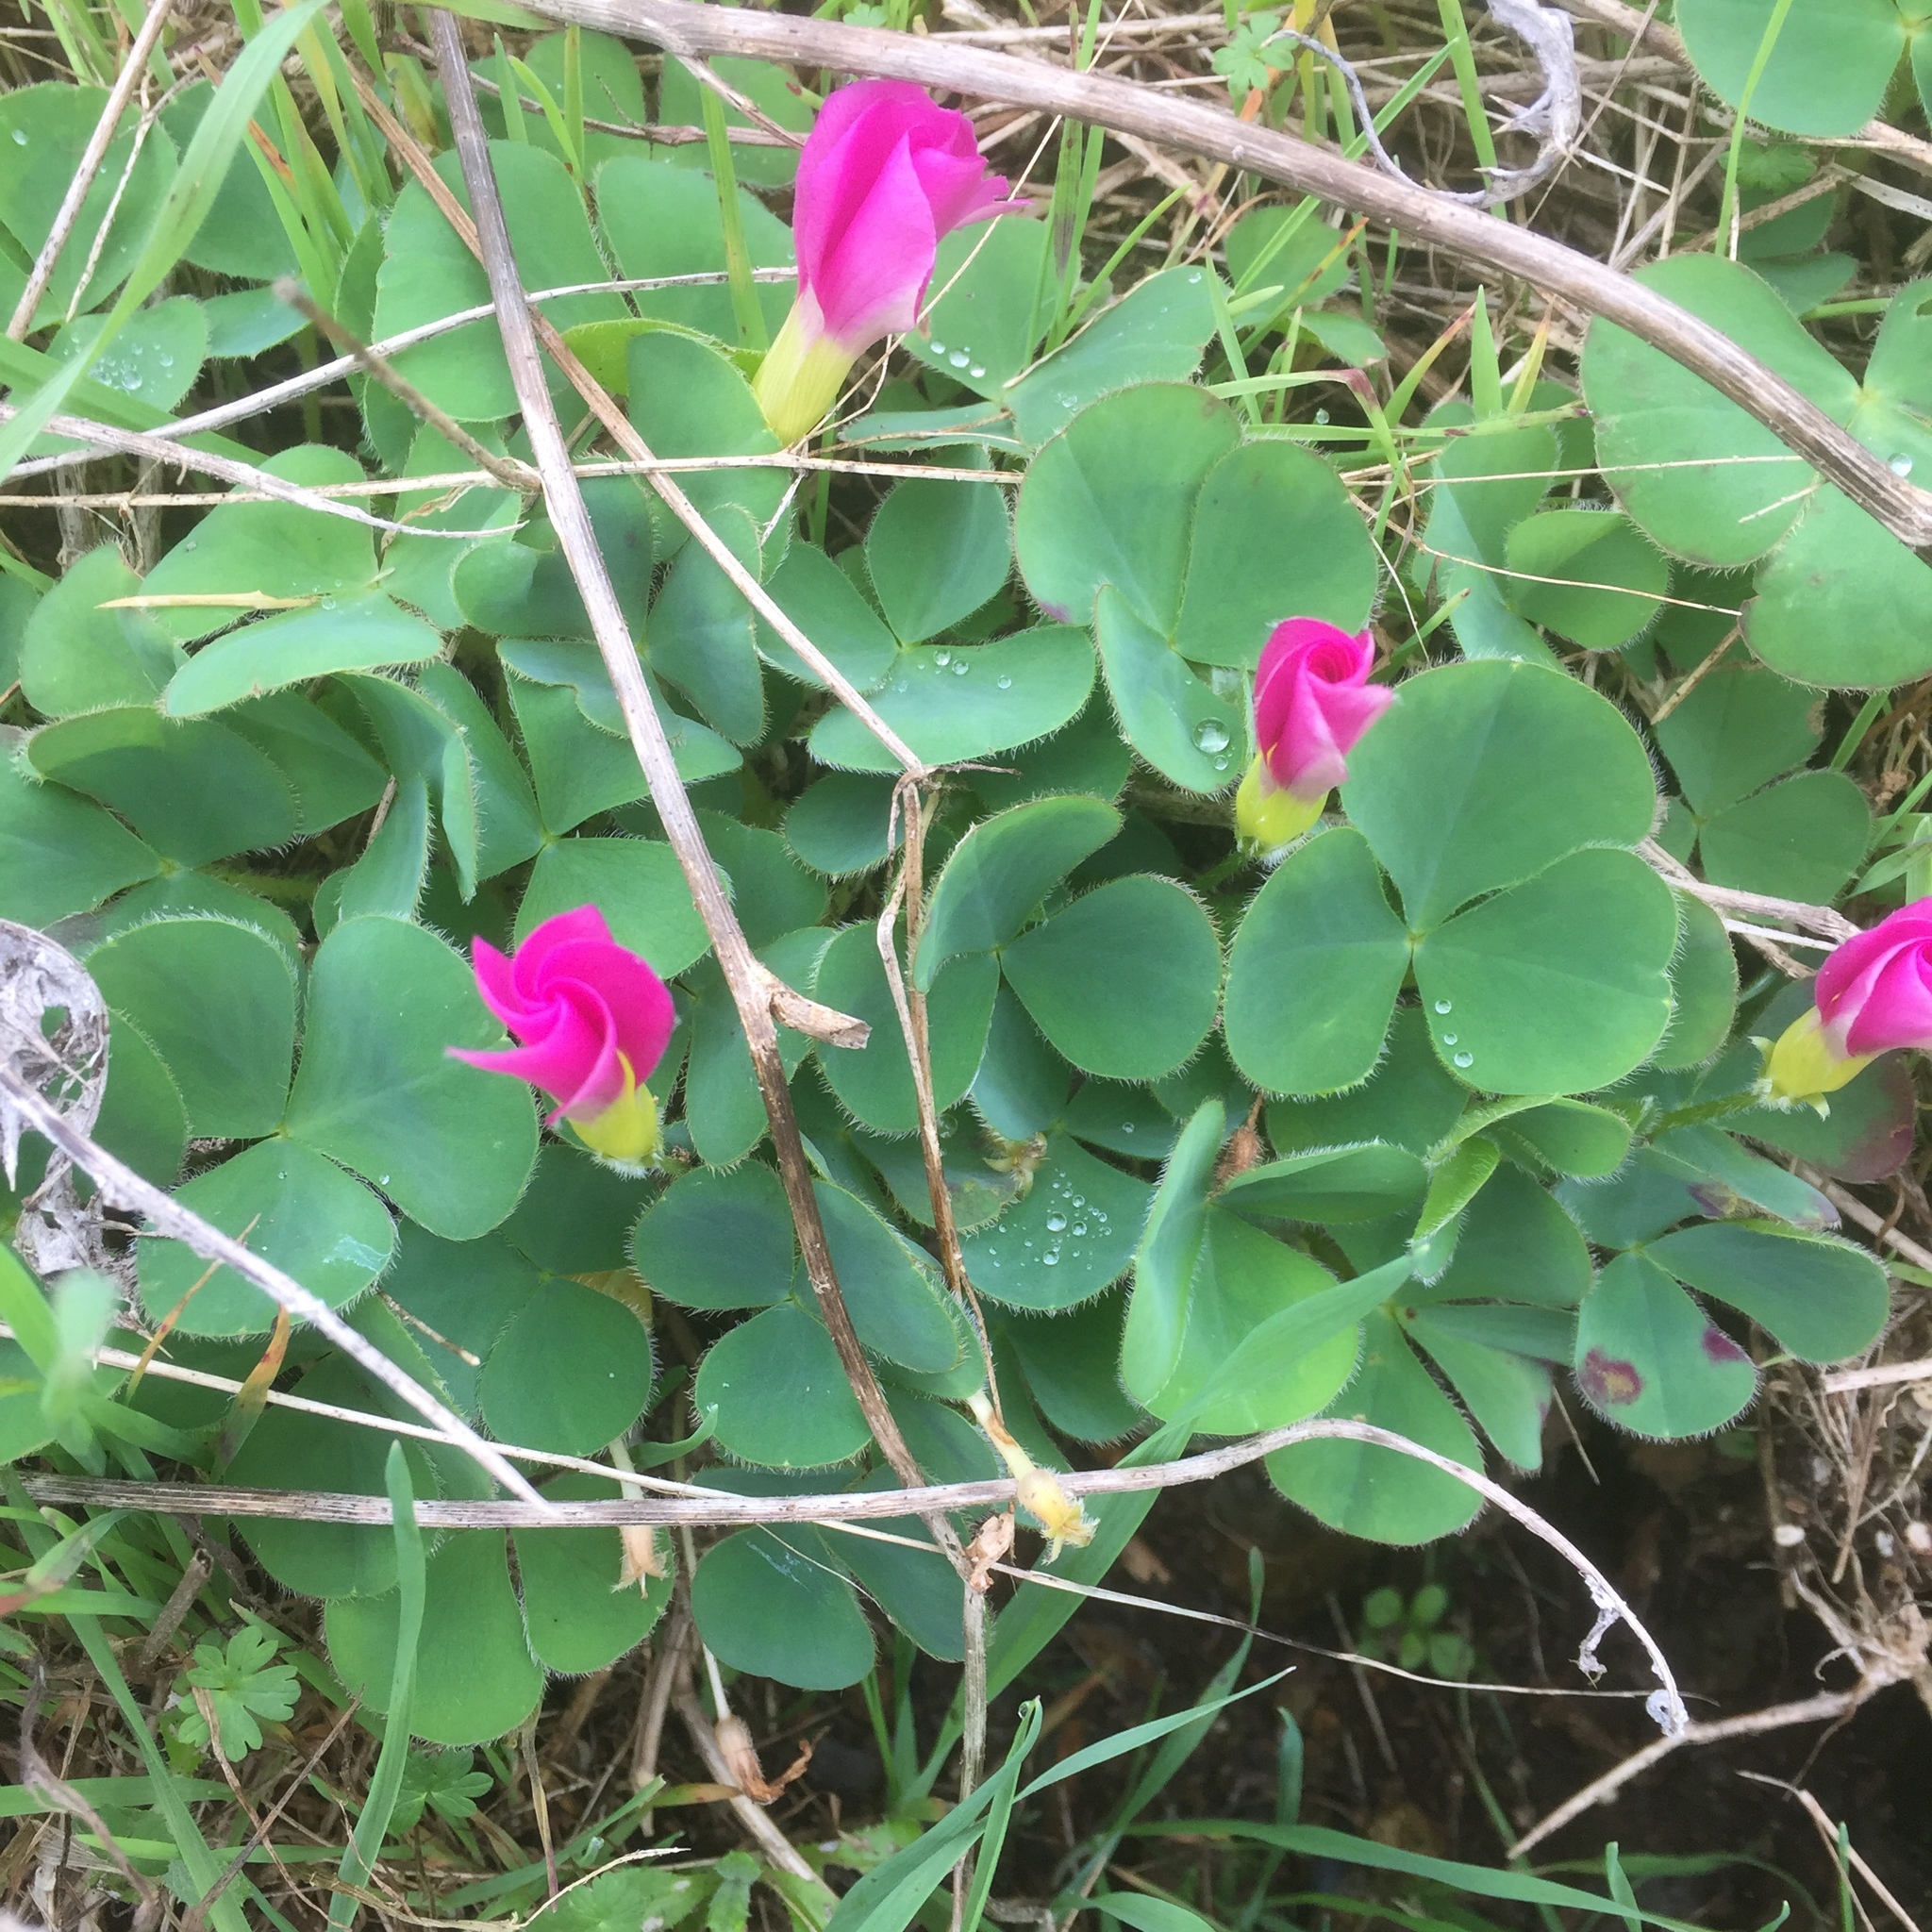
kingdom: Plantae
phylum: Tracheophyta
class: Magnoliopsida
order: Oxalidales
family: Oxalidaceae
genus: Oxalis
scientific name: Oxalis purpurea
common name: Purple woodsorrel
